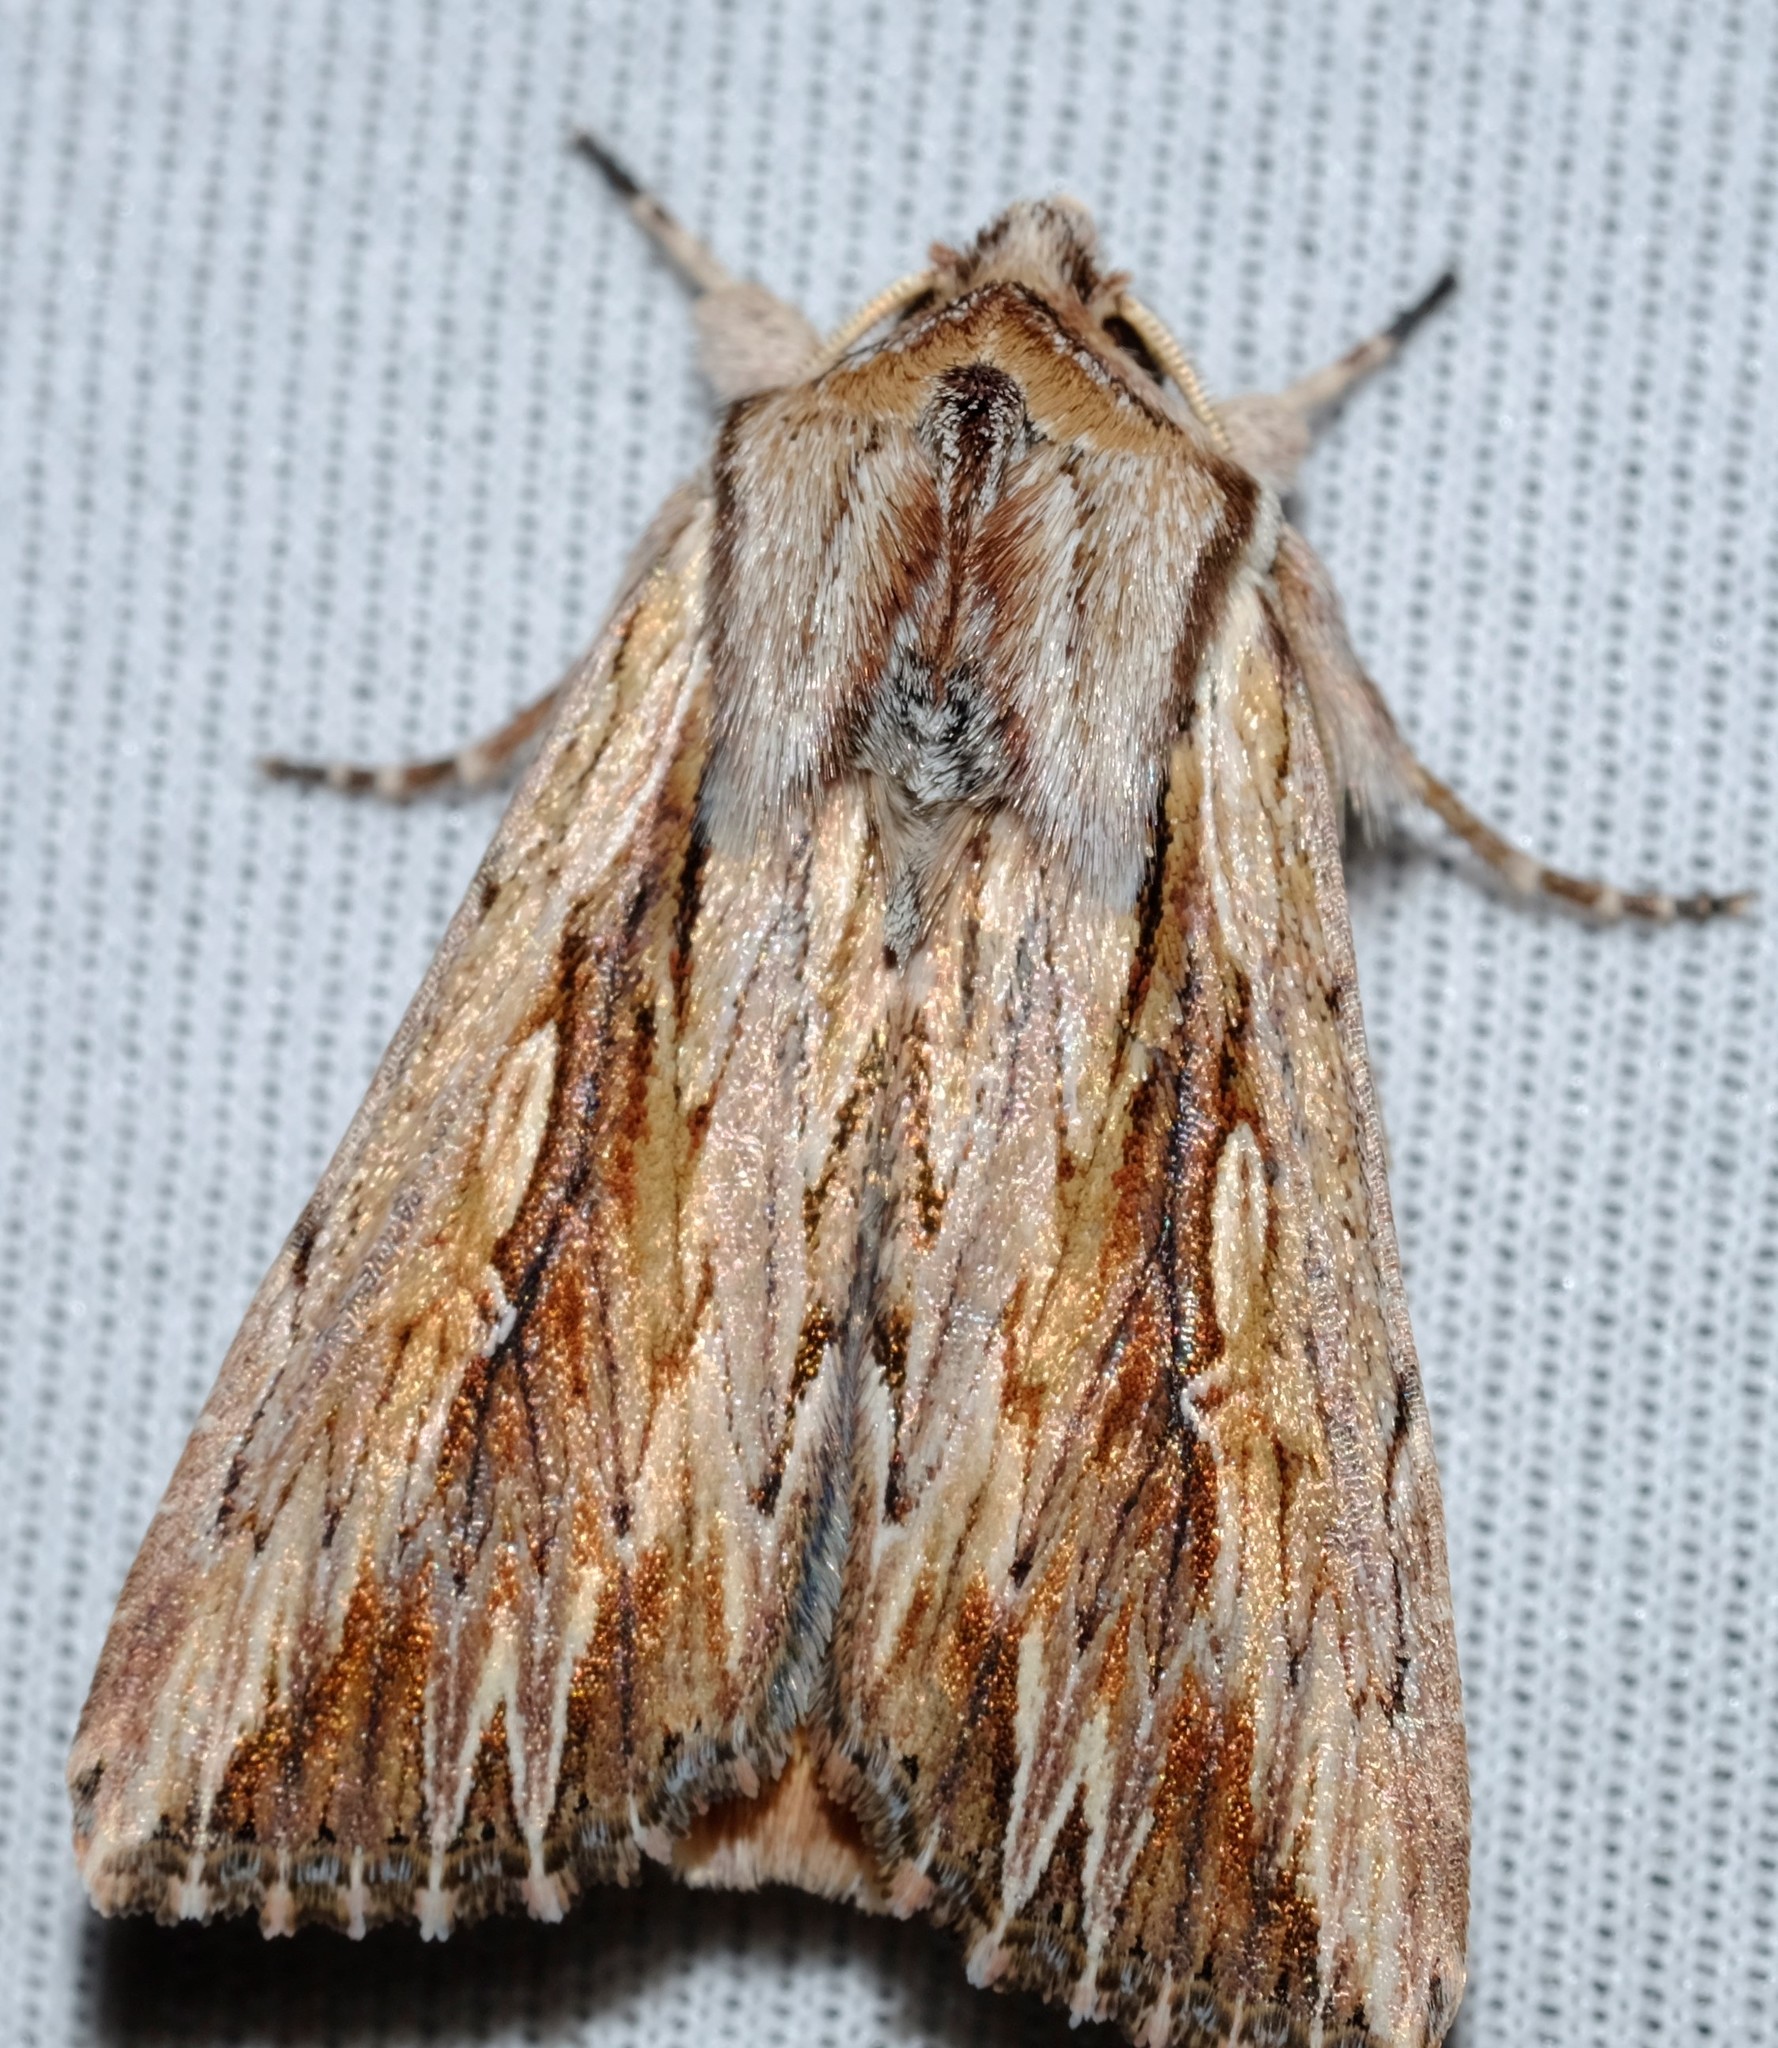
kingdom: Animalia
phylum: Arthropoda
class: Insecta
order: Lepidoptera
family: Noctuidae
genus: Persectania
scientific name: Persectania ewingii
